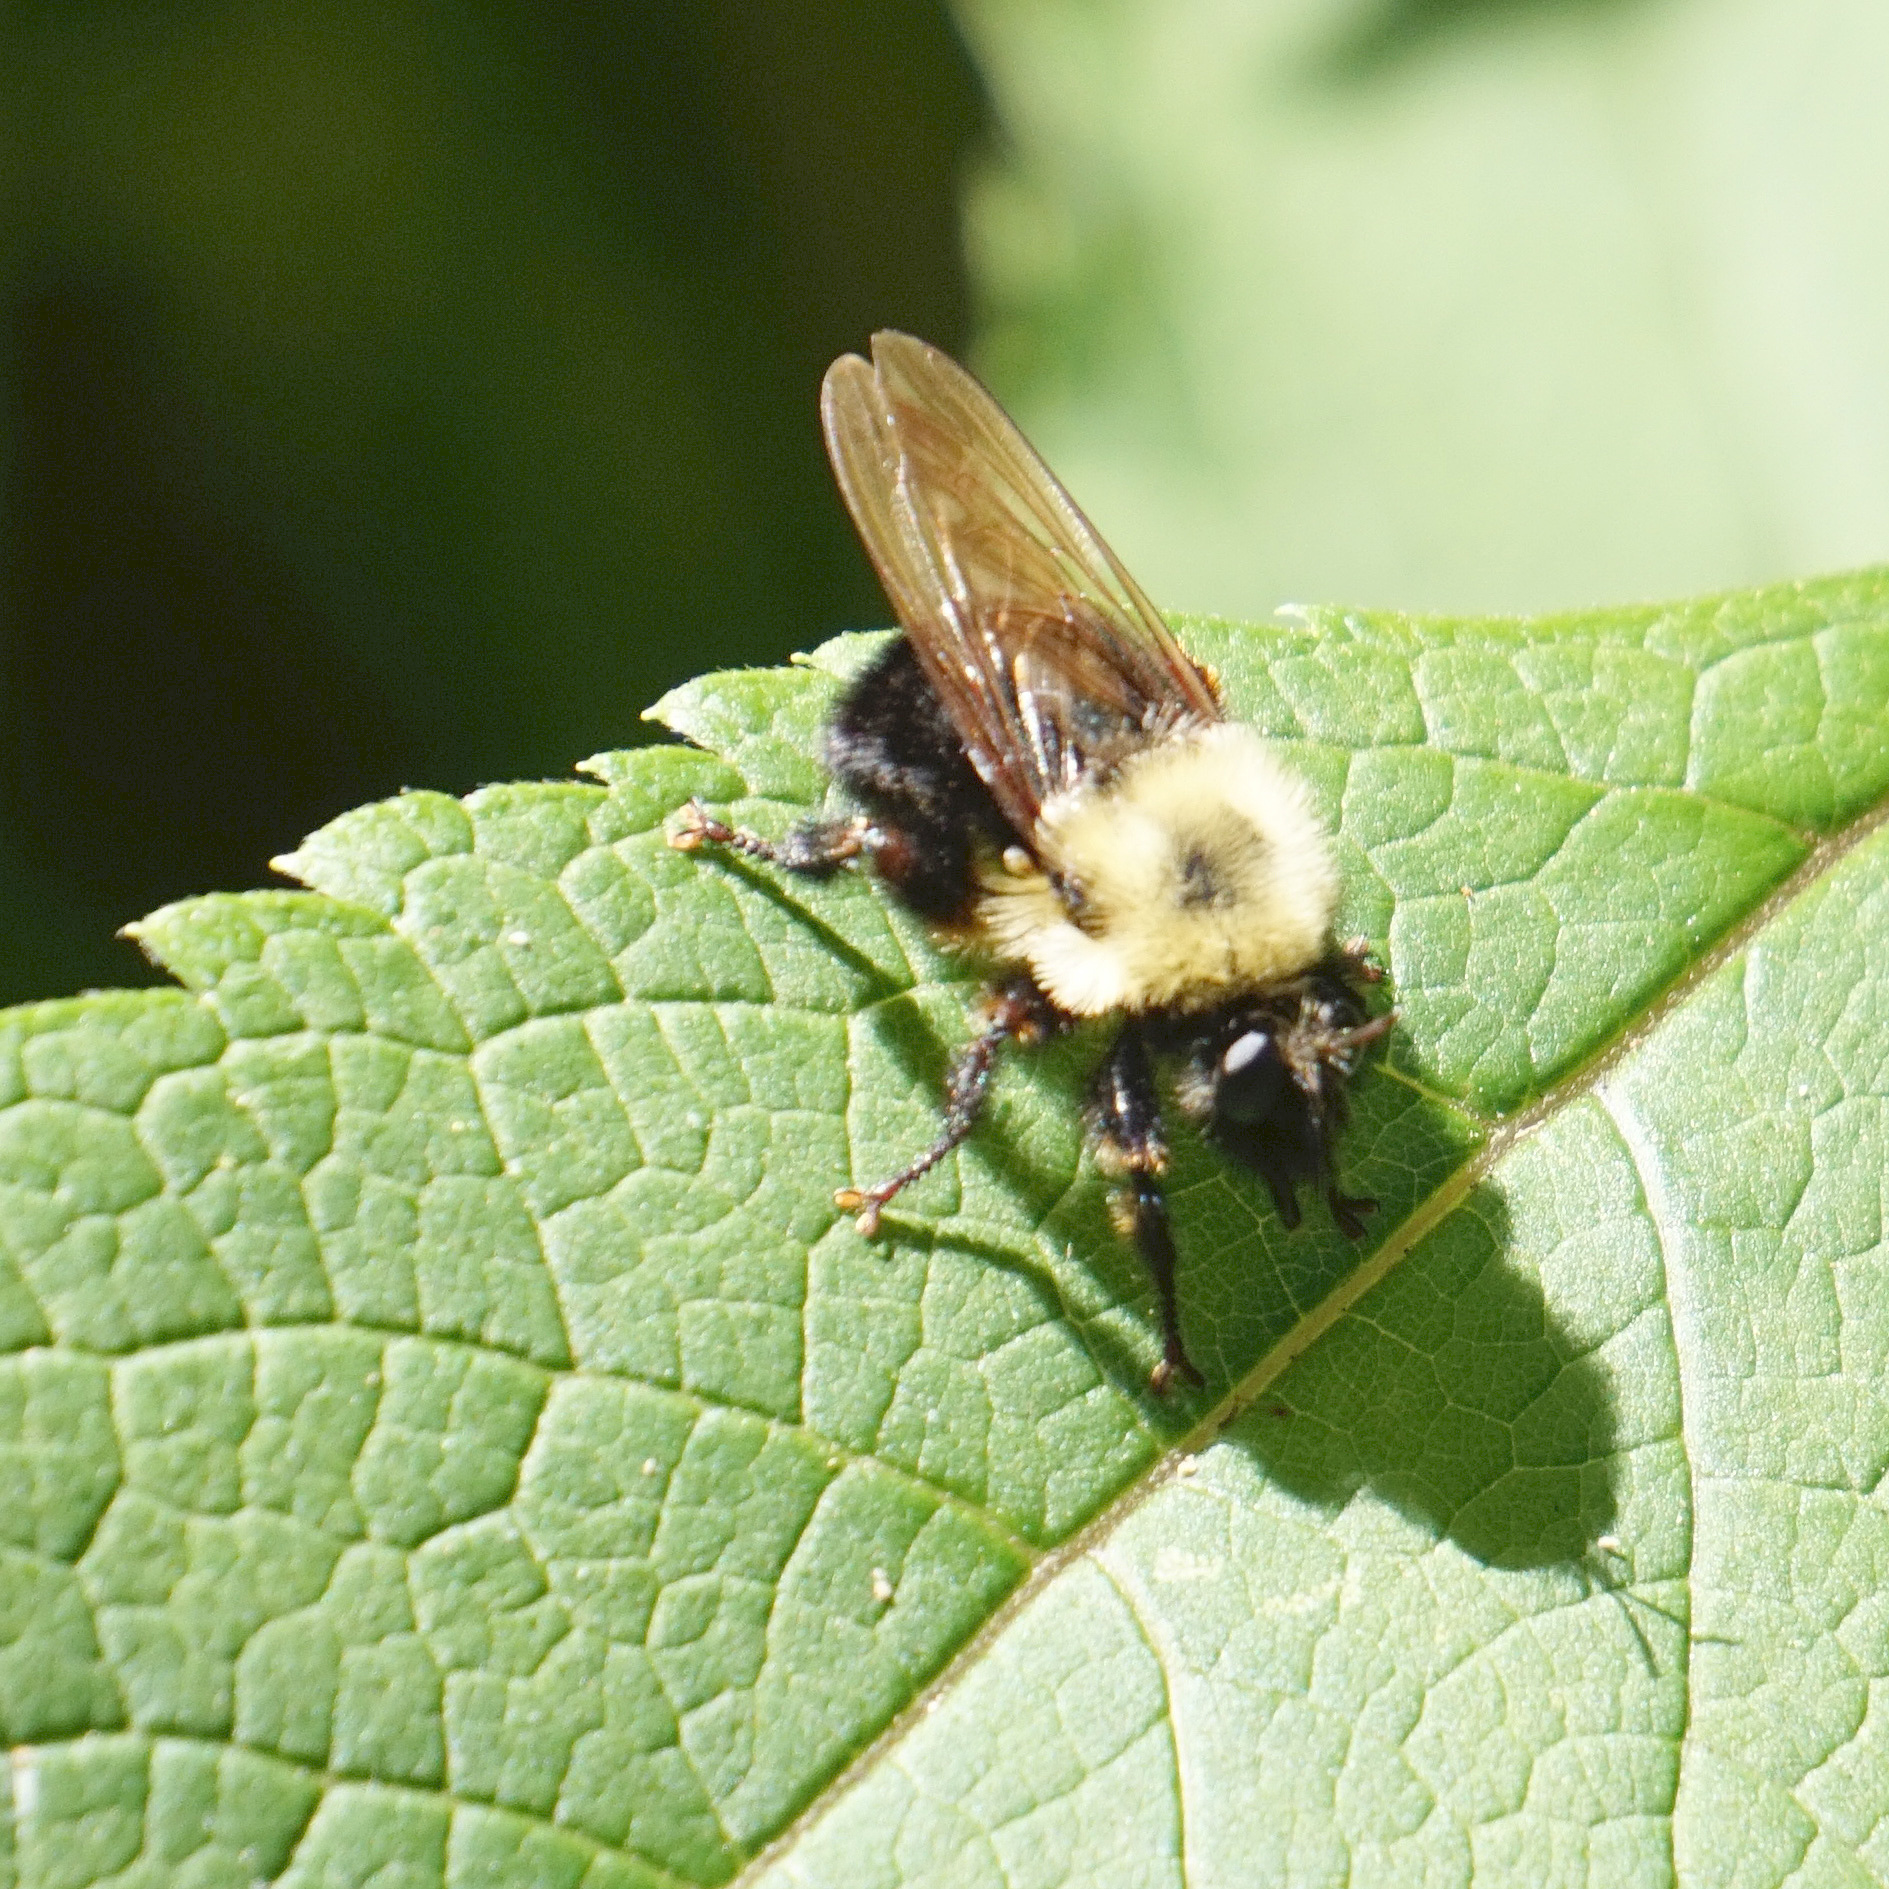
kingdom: Animalia
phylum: Arthropoda
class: Insecta
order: Diptera
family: Asilidae
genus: Laphria
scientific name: Laphria thoracica
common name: Bumble bee mimic robber fly
